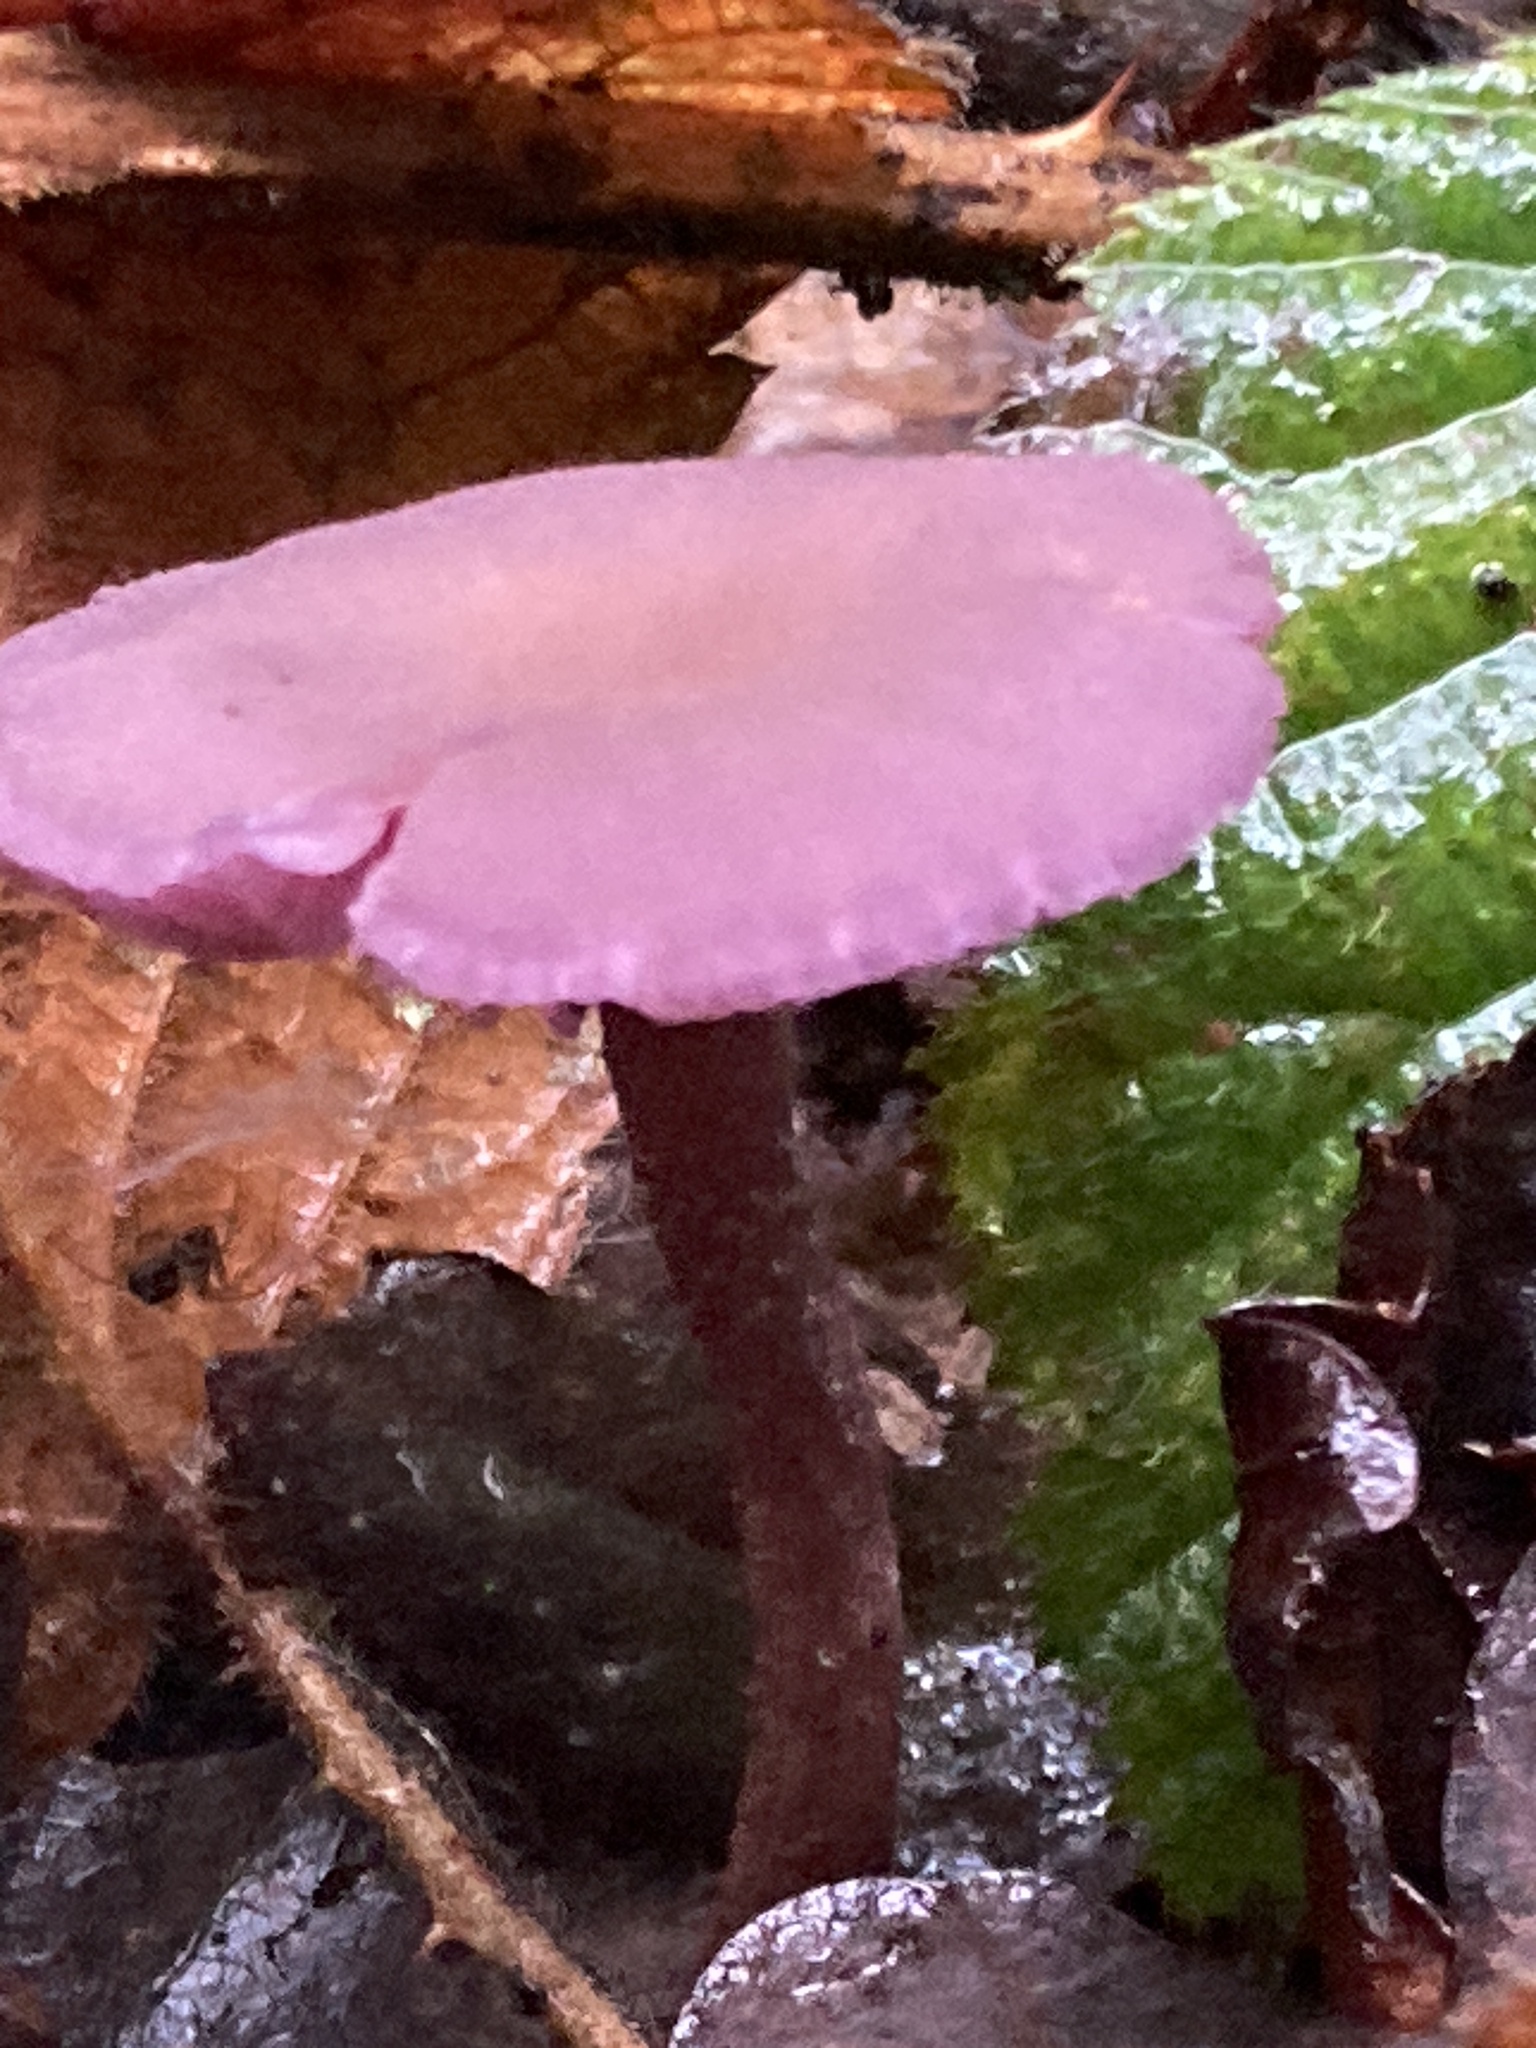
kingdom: Fungi
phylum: Basidiomycota
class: Agaricomycetes
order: Agaricales
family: Hydnangiaceae
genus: Laccaria
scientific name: Laccaria amethystina
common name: Amethyst deceiver
